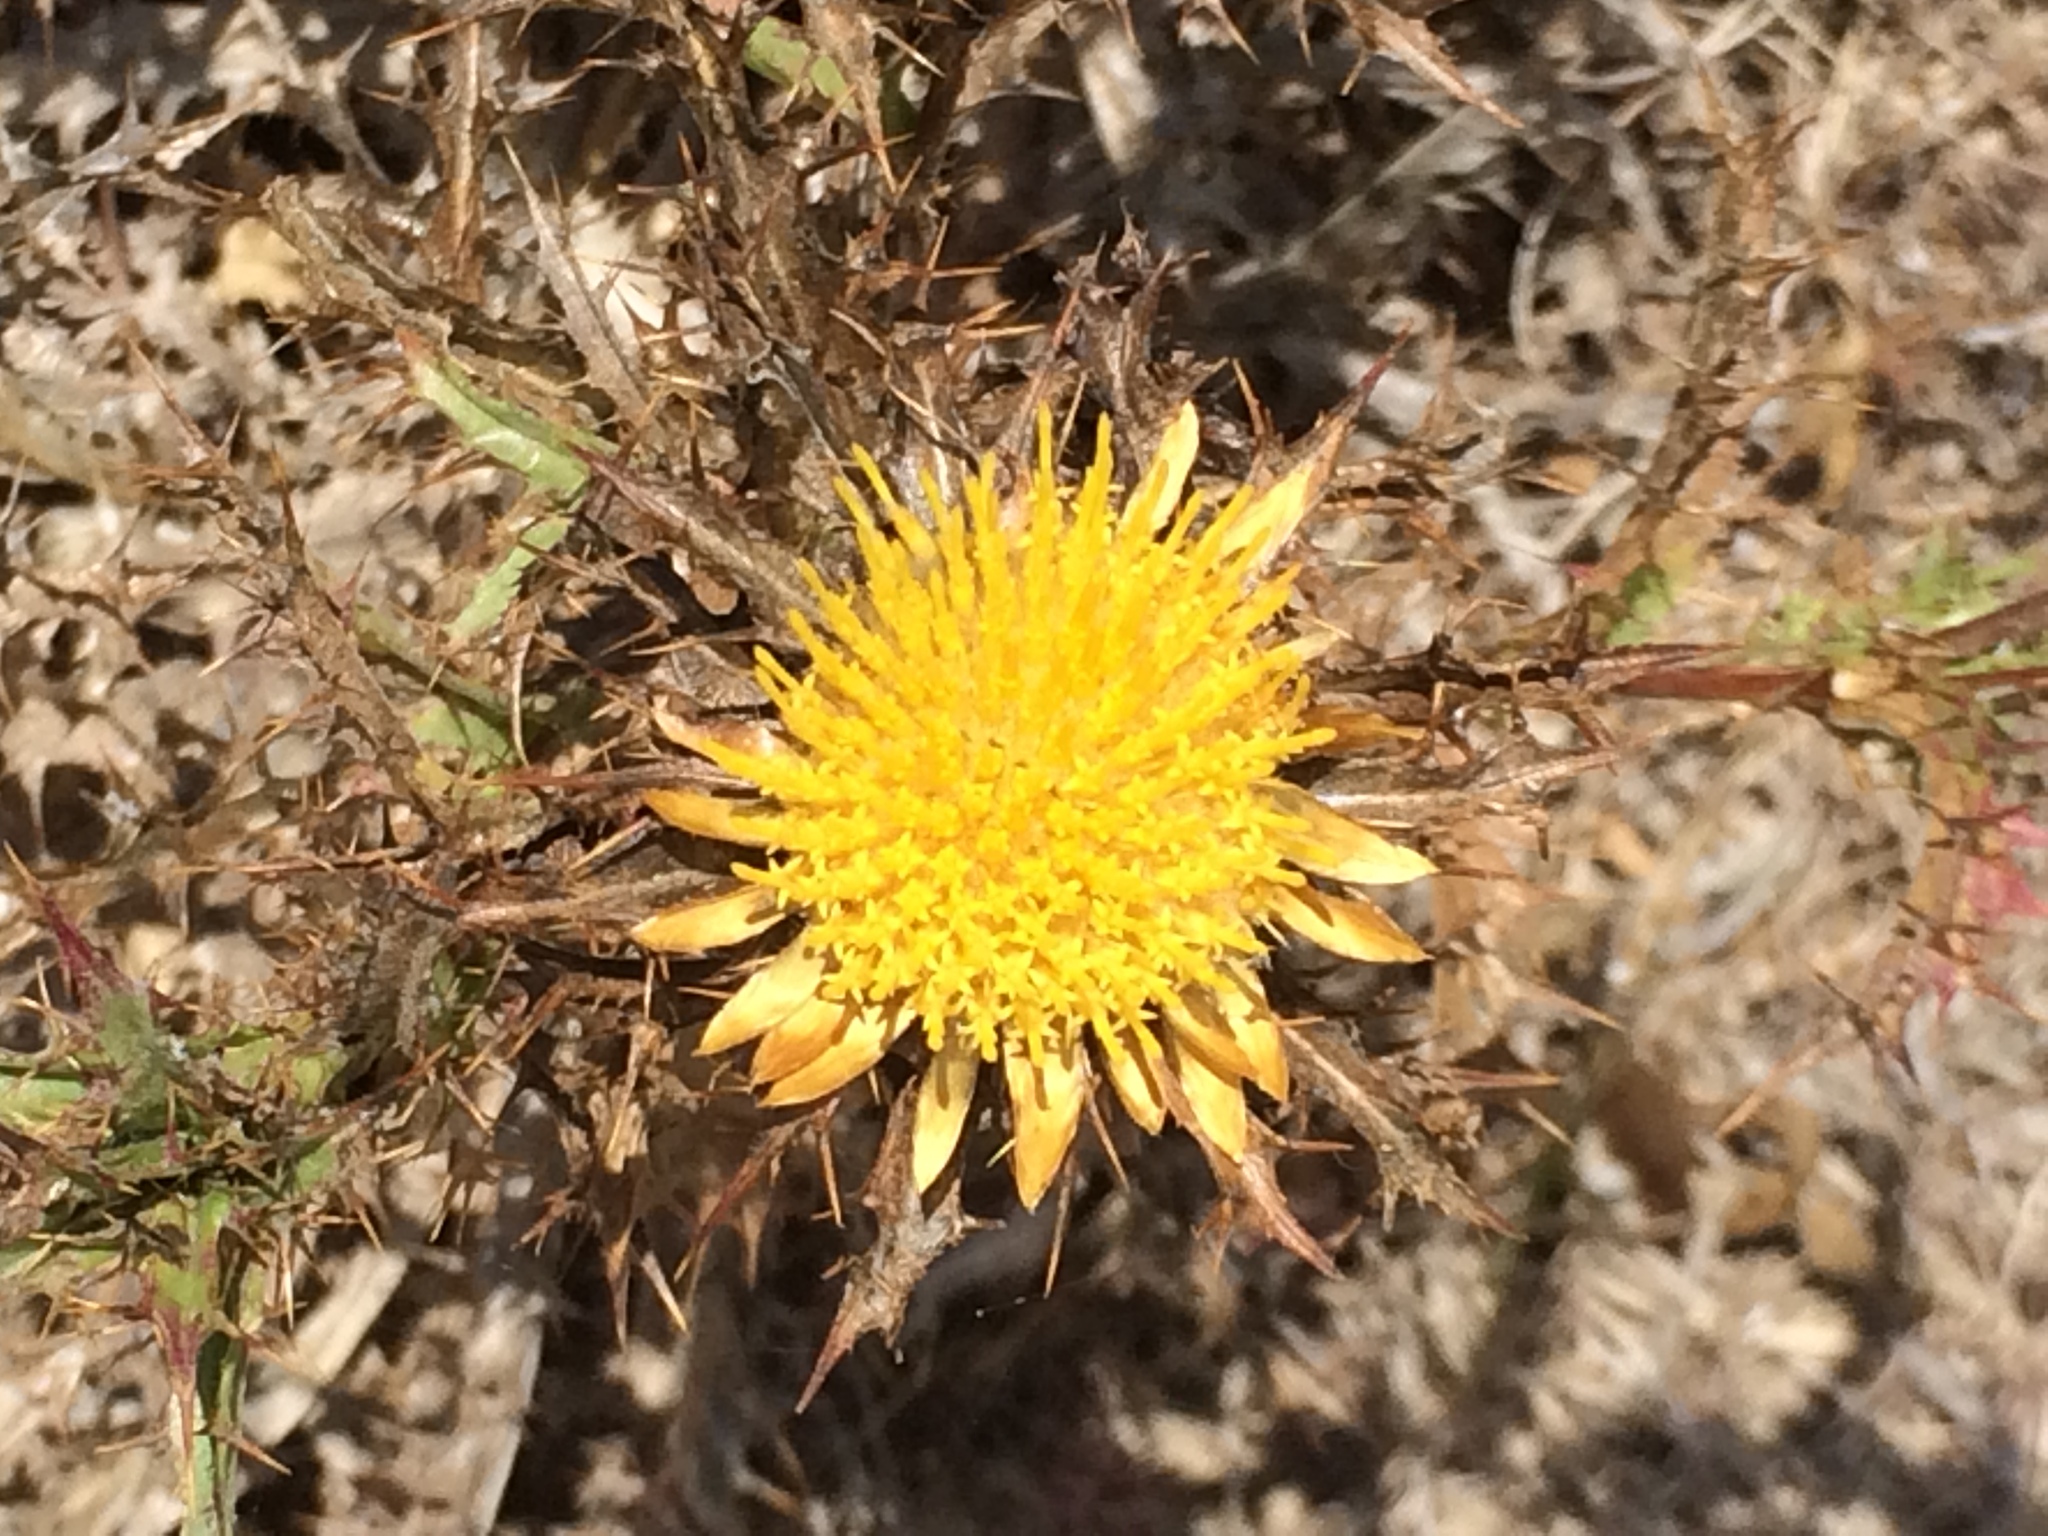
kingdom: Plantae
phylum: Tracheophyta
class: Magnoliopsida
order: Asterales
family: Asteraceae
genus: Carlina
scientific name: Carlina hispanica
